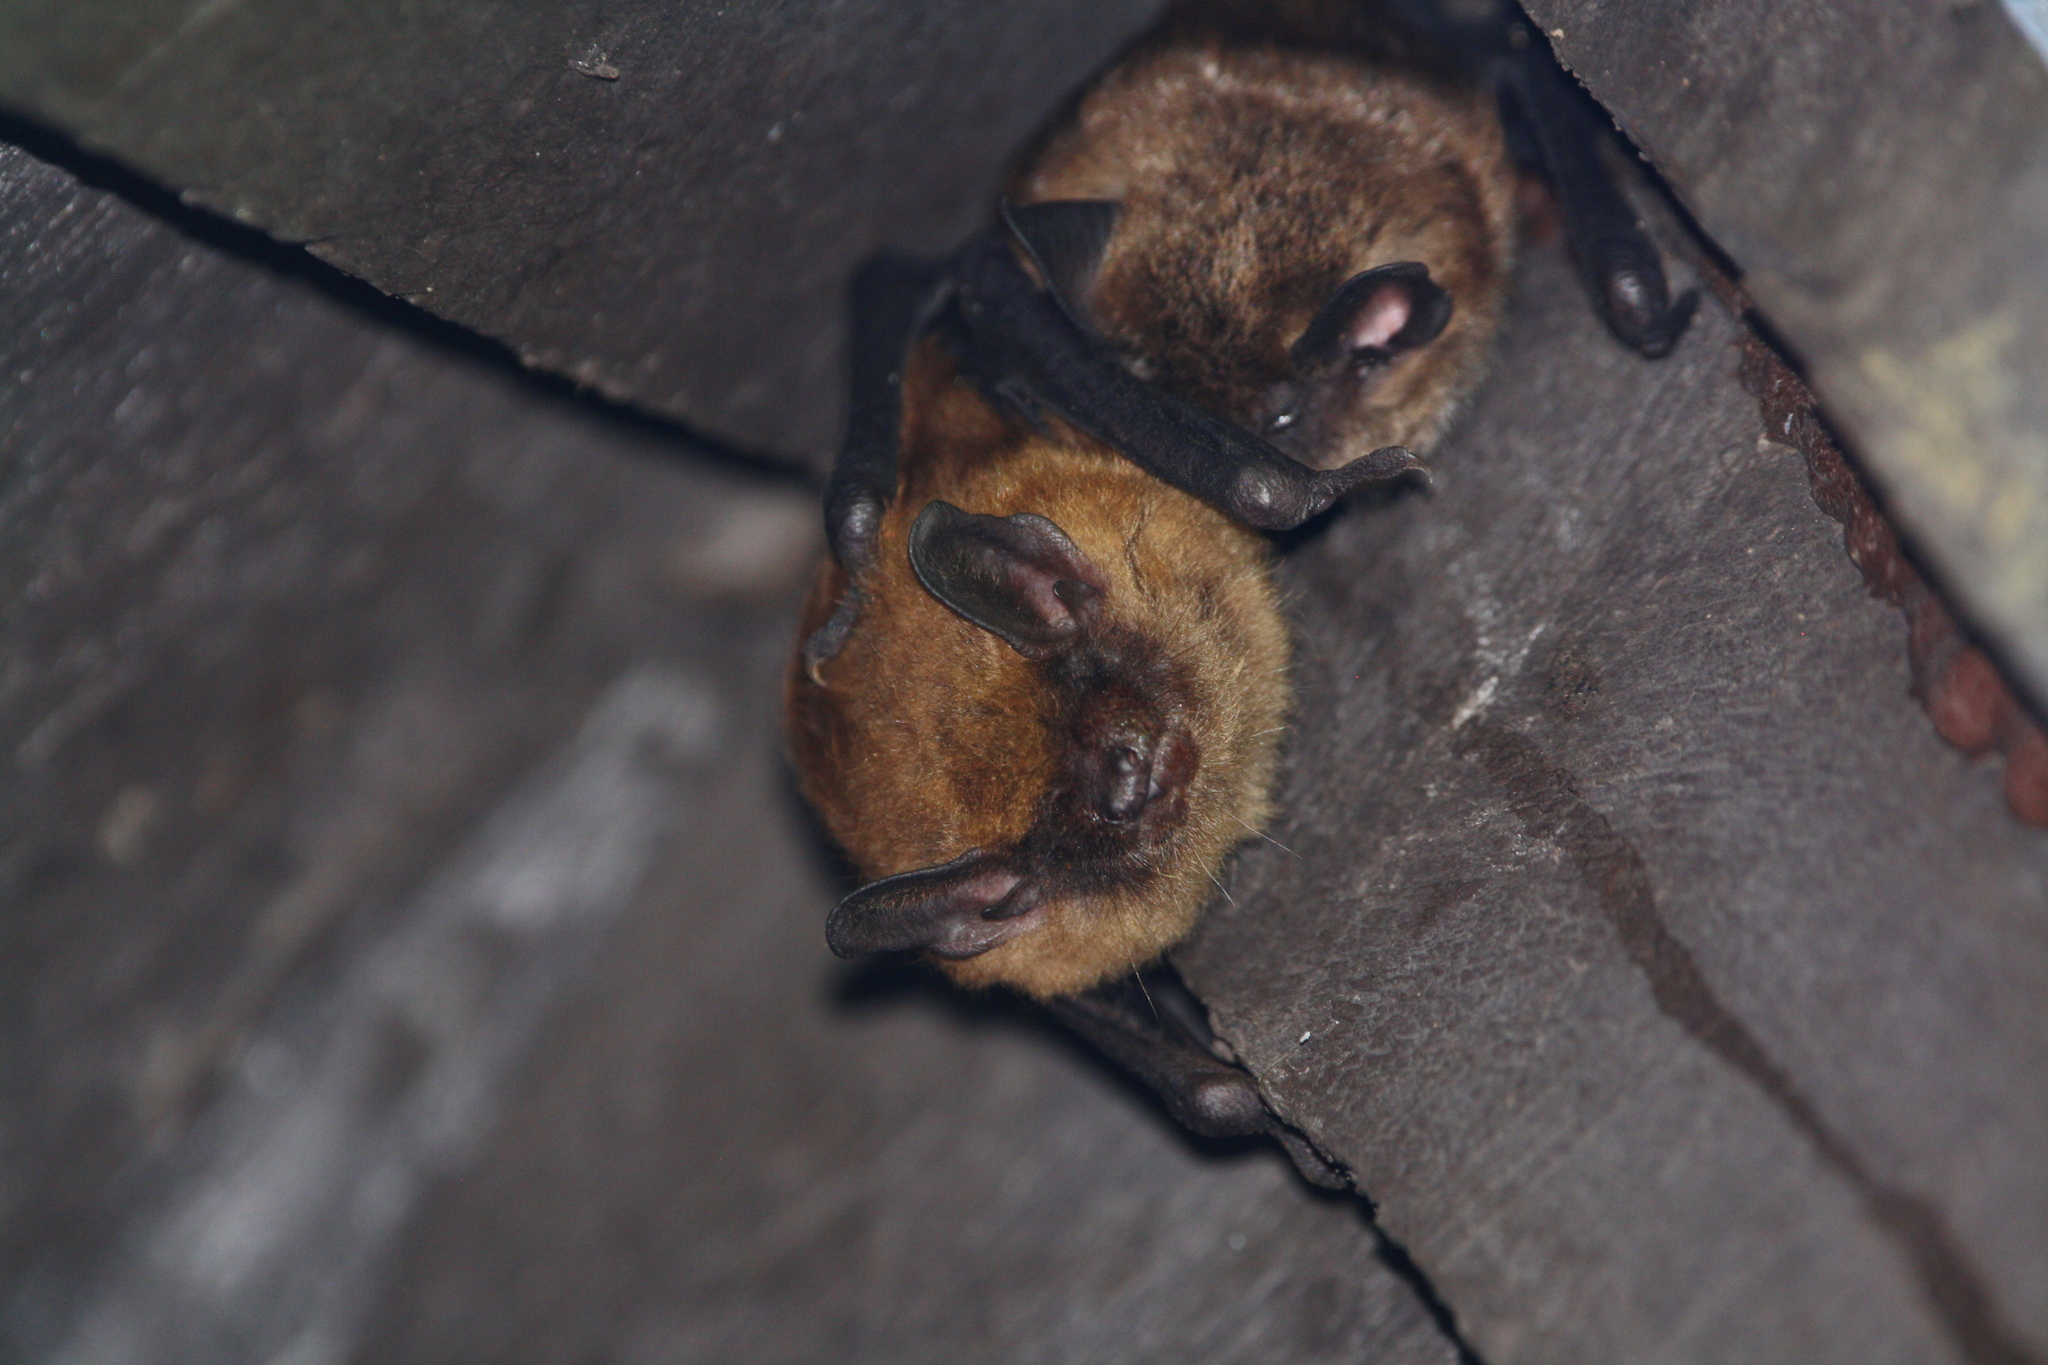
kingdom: Animalia
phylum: Chordata
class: Mammalia
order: Chiroptera
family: Vespertilionidae
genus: Eptesicus
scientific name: Eptesicus fuscus
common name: Big brown bat
